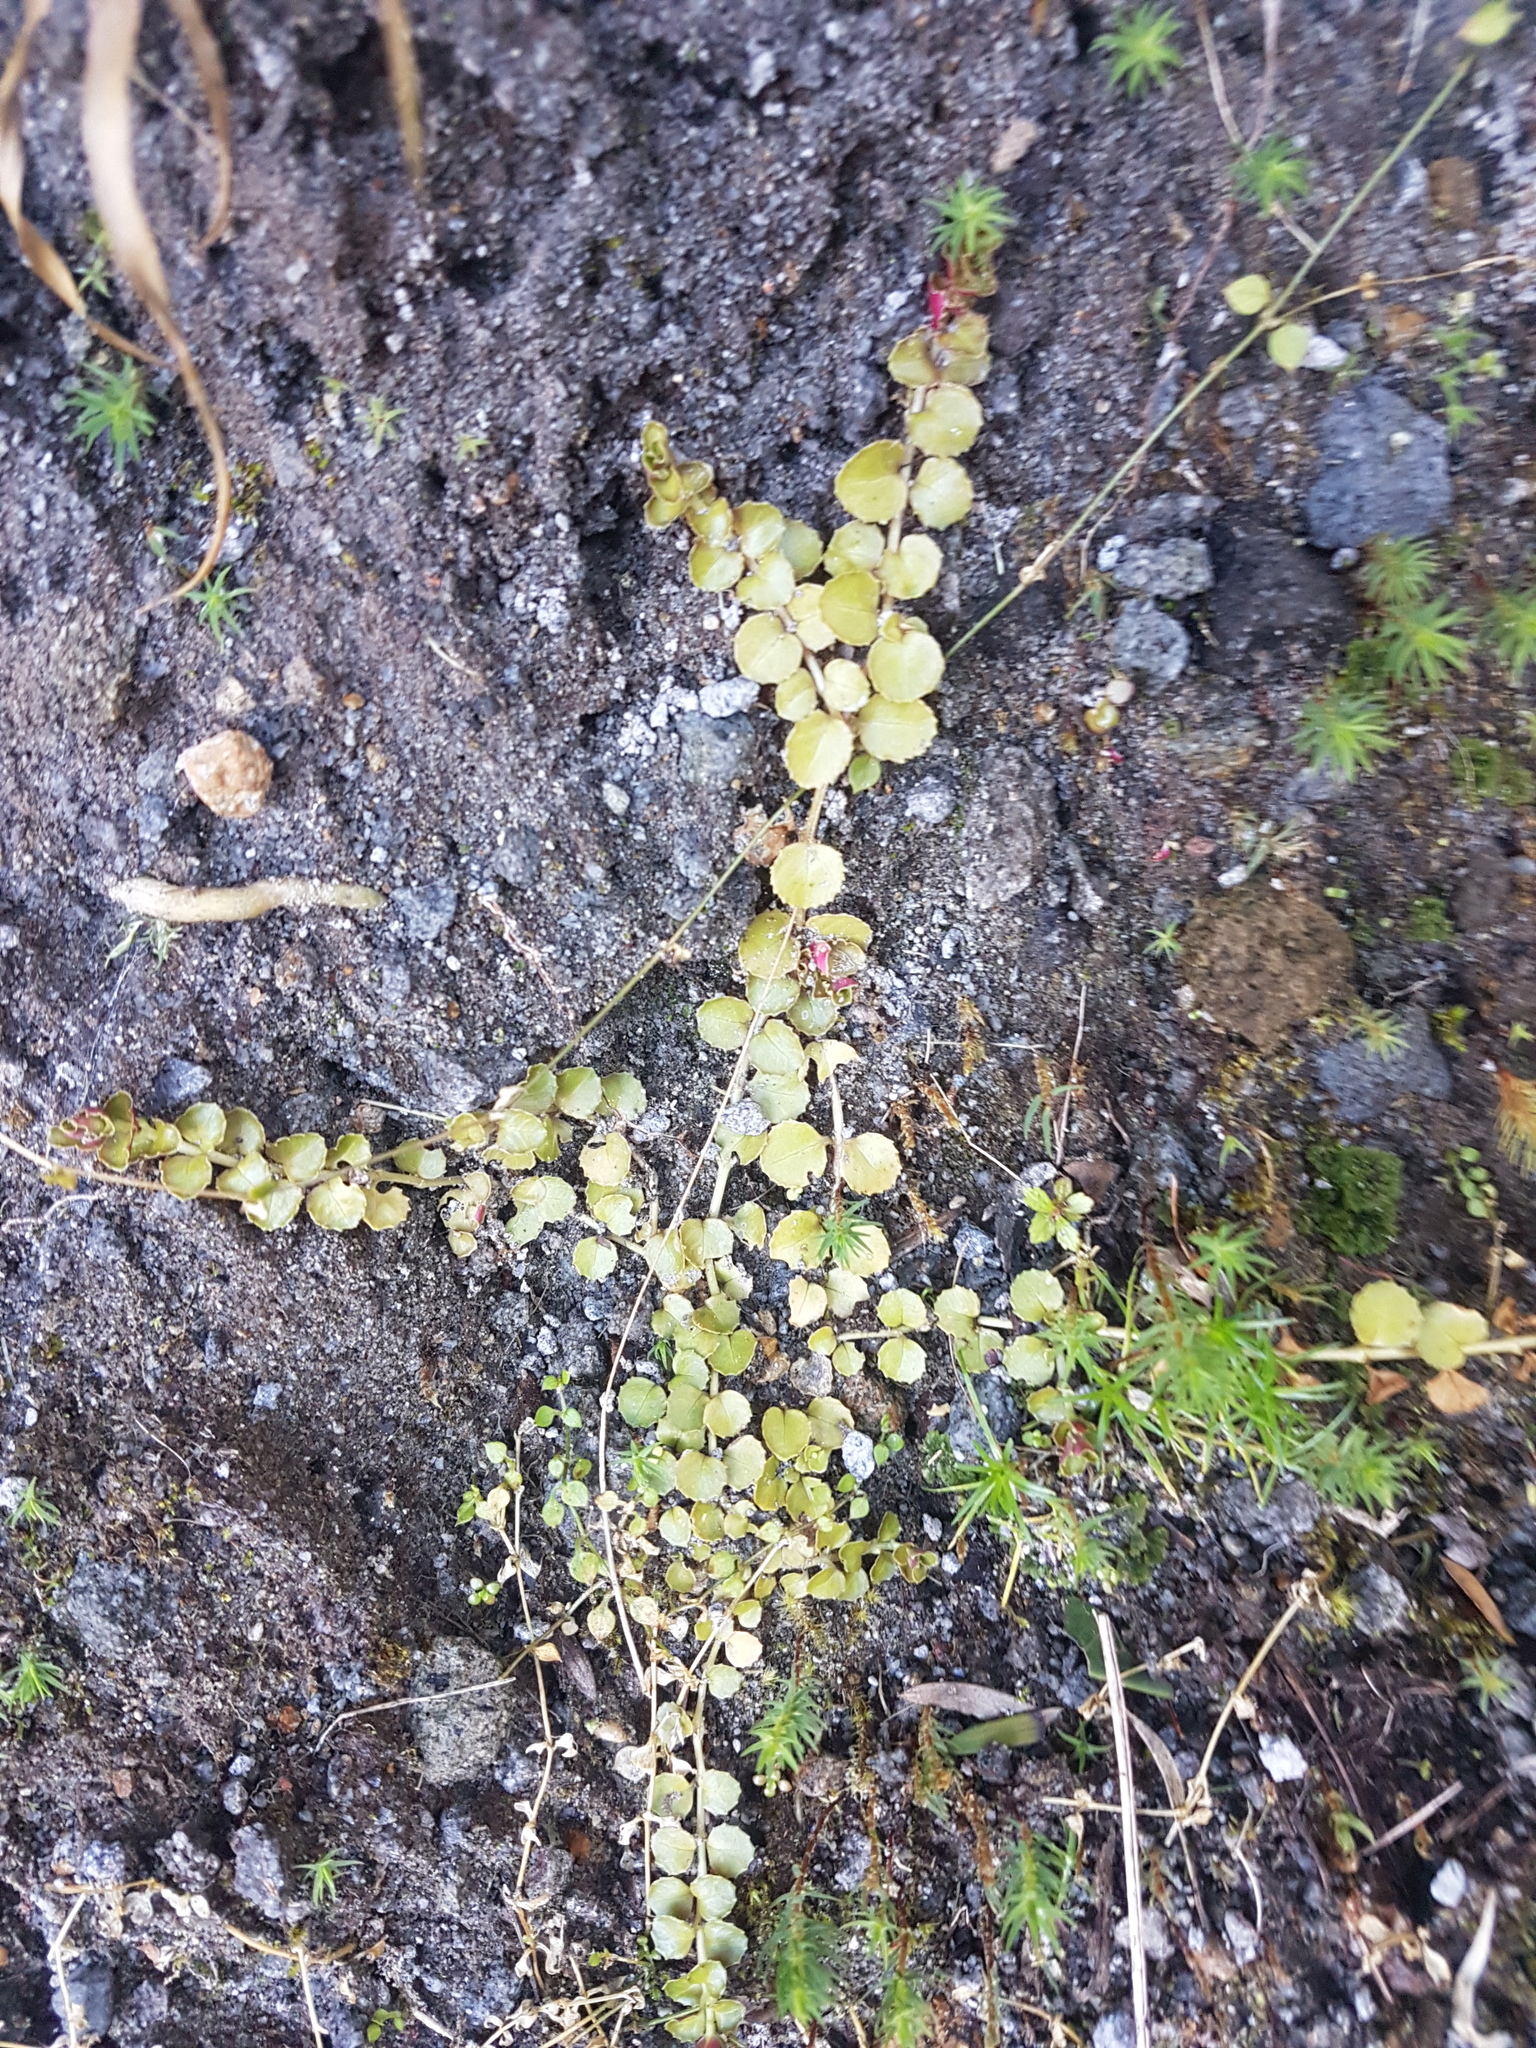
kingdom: Plantae
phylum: Tracheophyta
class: Magnoliopsida
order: Myrtales
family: Onagraceae
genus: Epilobium
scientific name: Epilobium pedunculare
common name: Rockery willowherb
